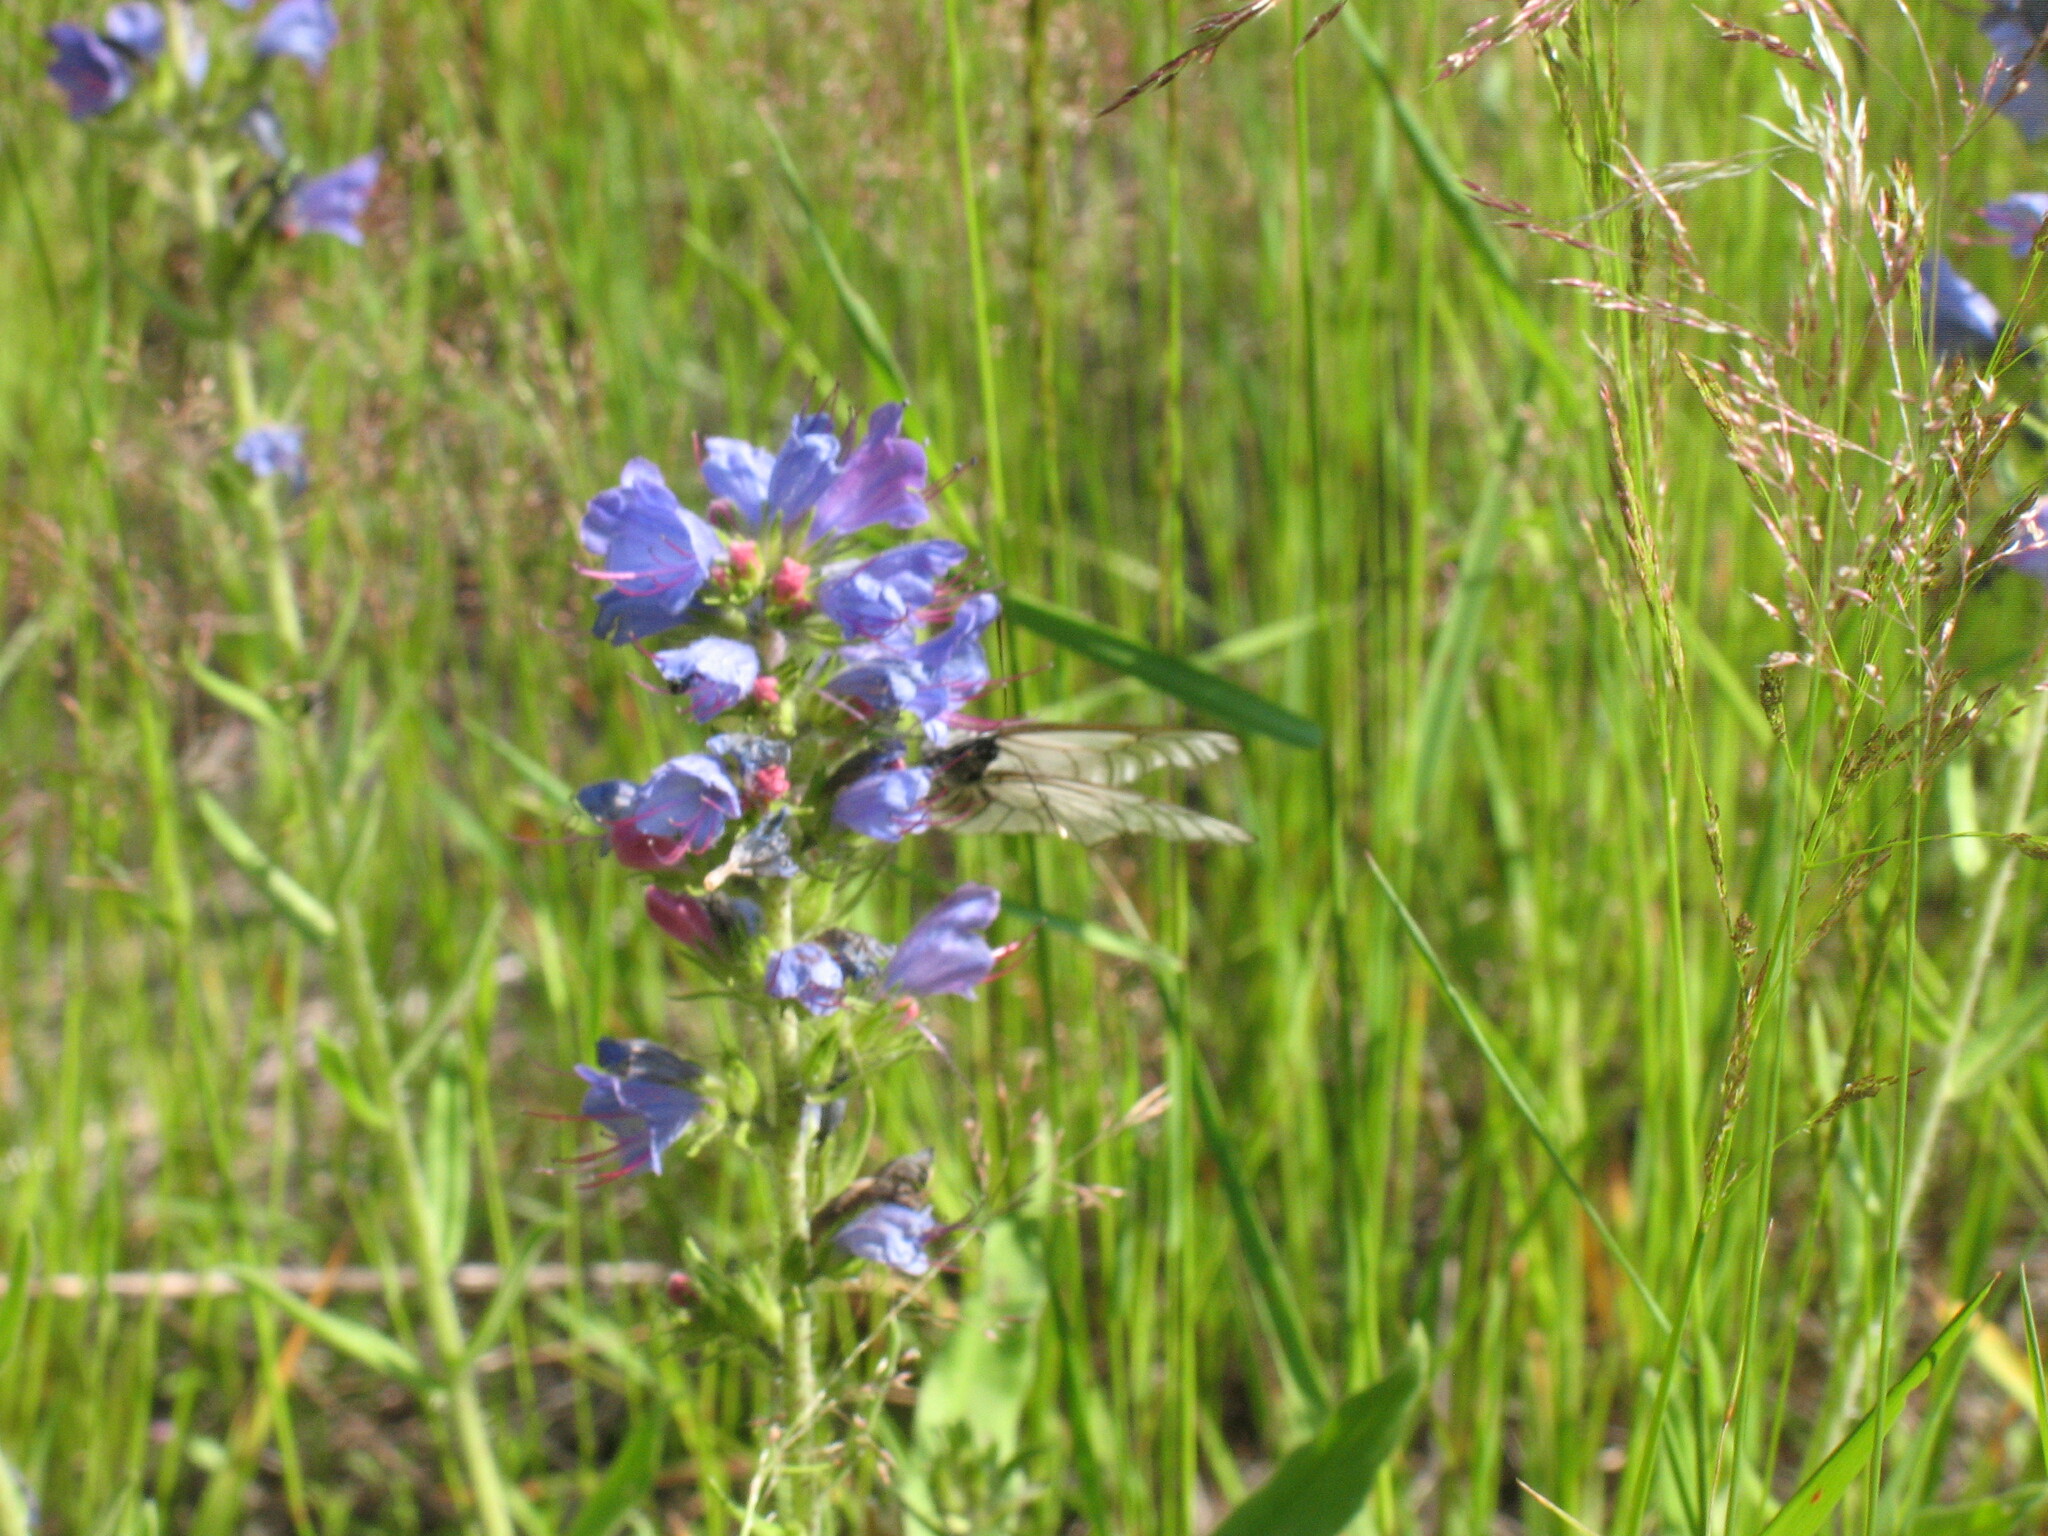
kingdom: Plantae
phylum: Tracheophyta
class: Magnoliopsida
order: Boraginales
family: Boraginaceae
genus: Echium
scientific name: Echium vulgare
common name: Common viper's bugloss
